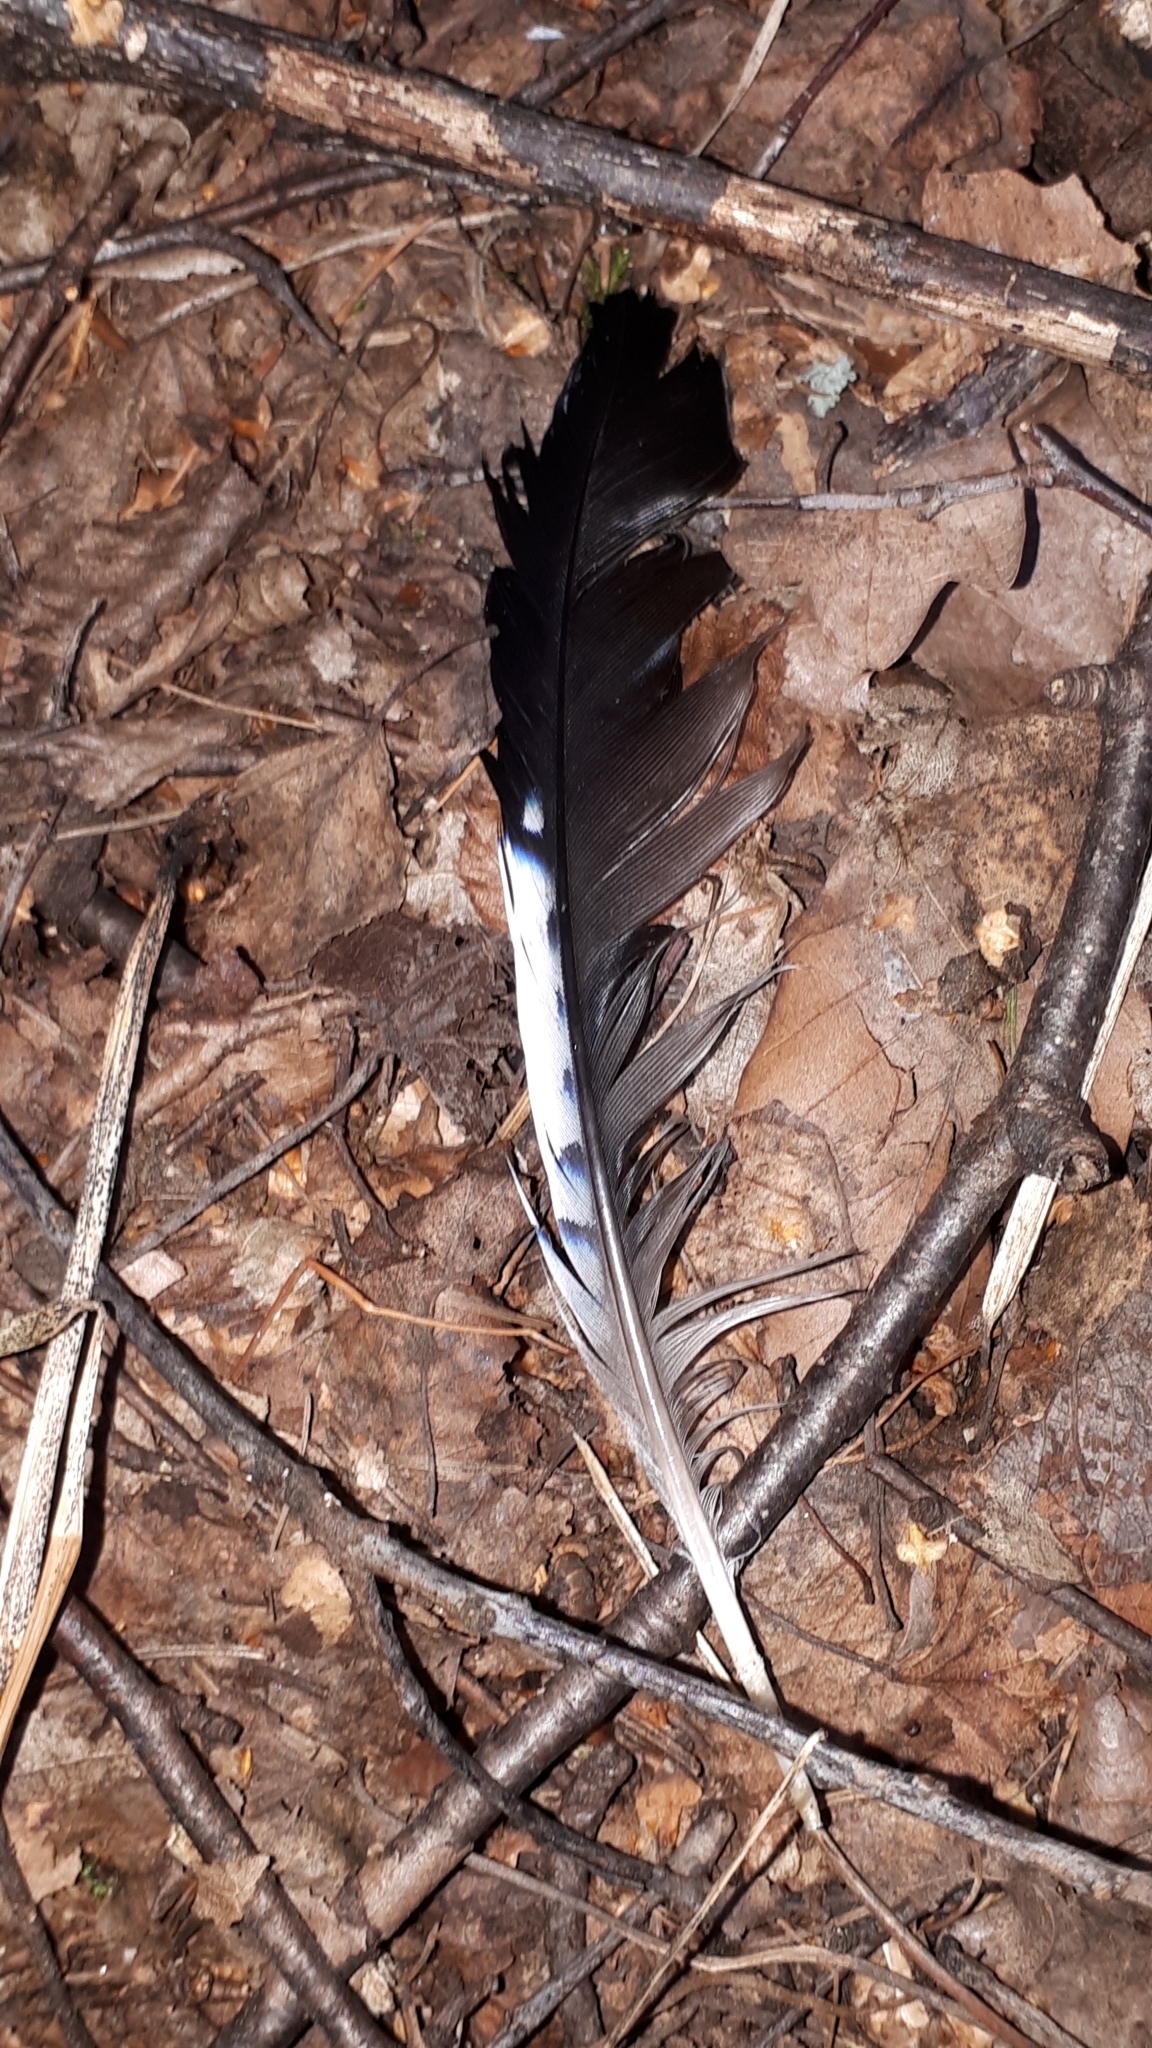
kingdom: Animalia
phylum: Chordata
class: Aves
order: Passeriformes
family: Corvidae
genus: Garrulus
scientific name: Garrulus glandarius
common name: Eurasian jay
